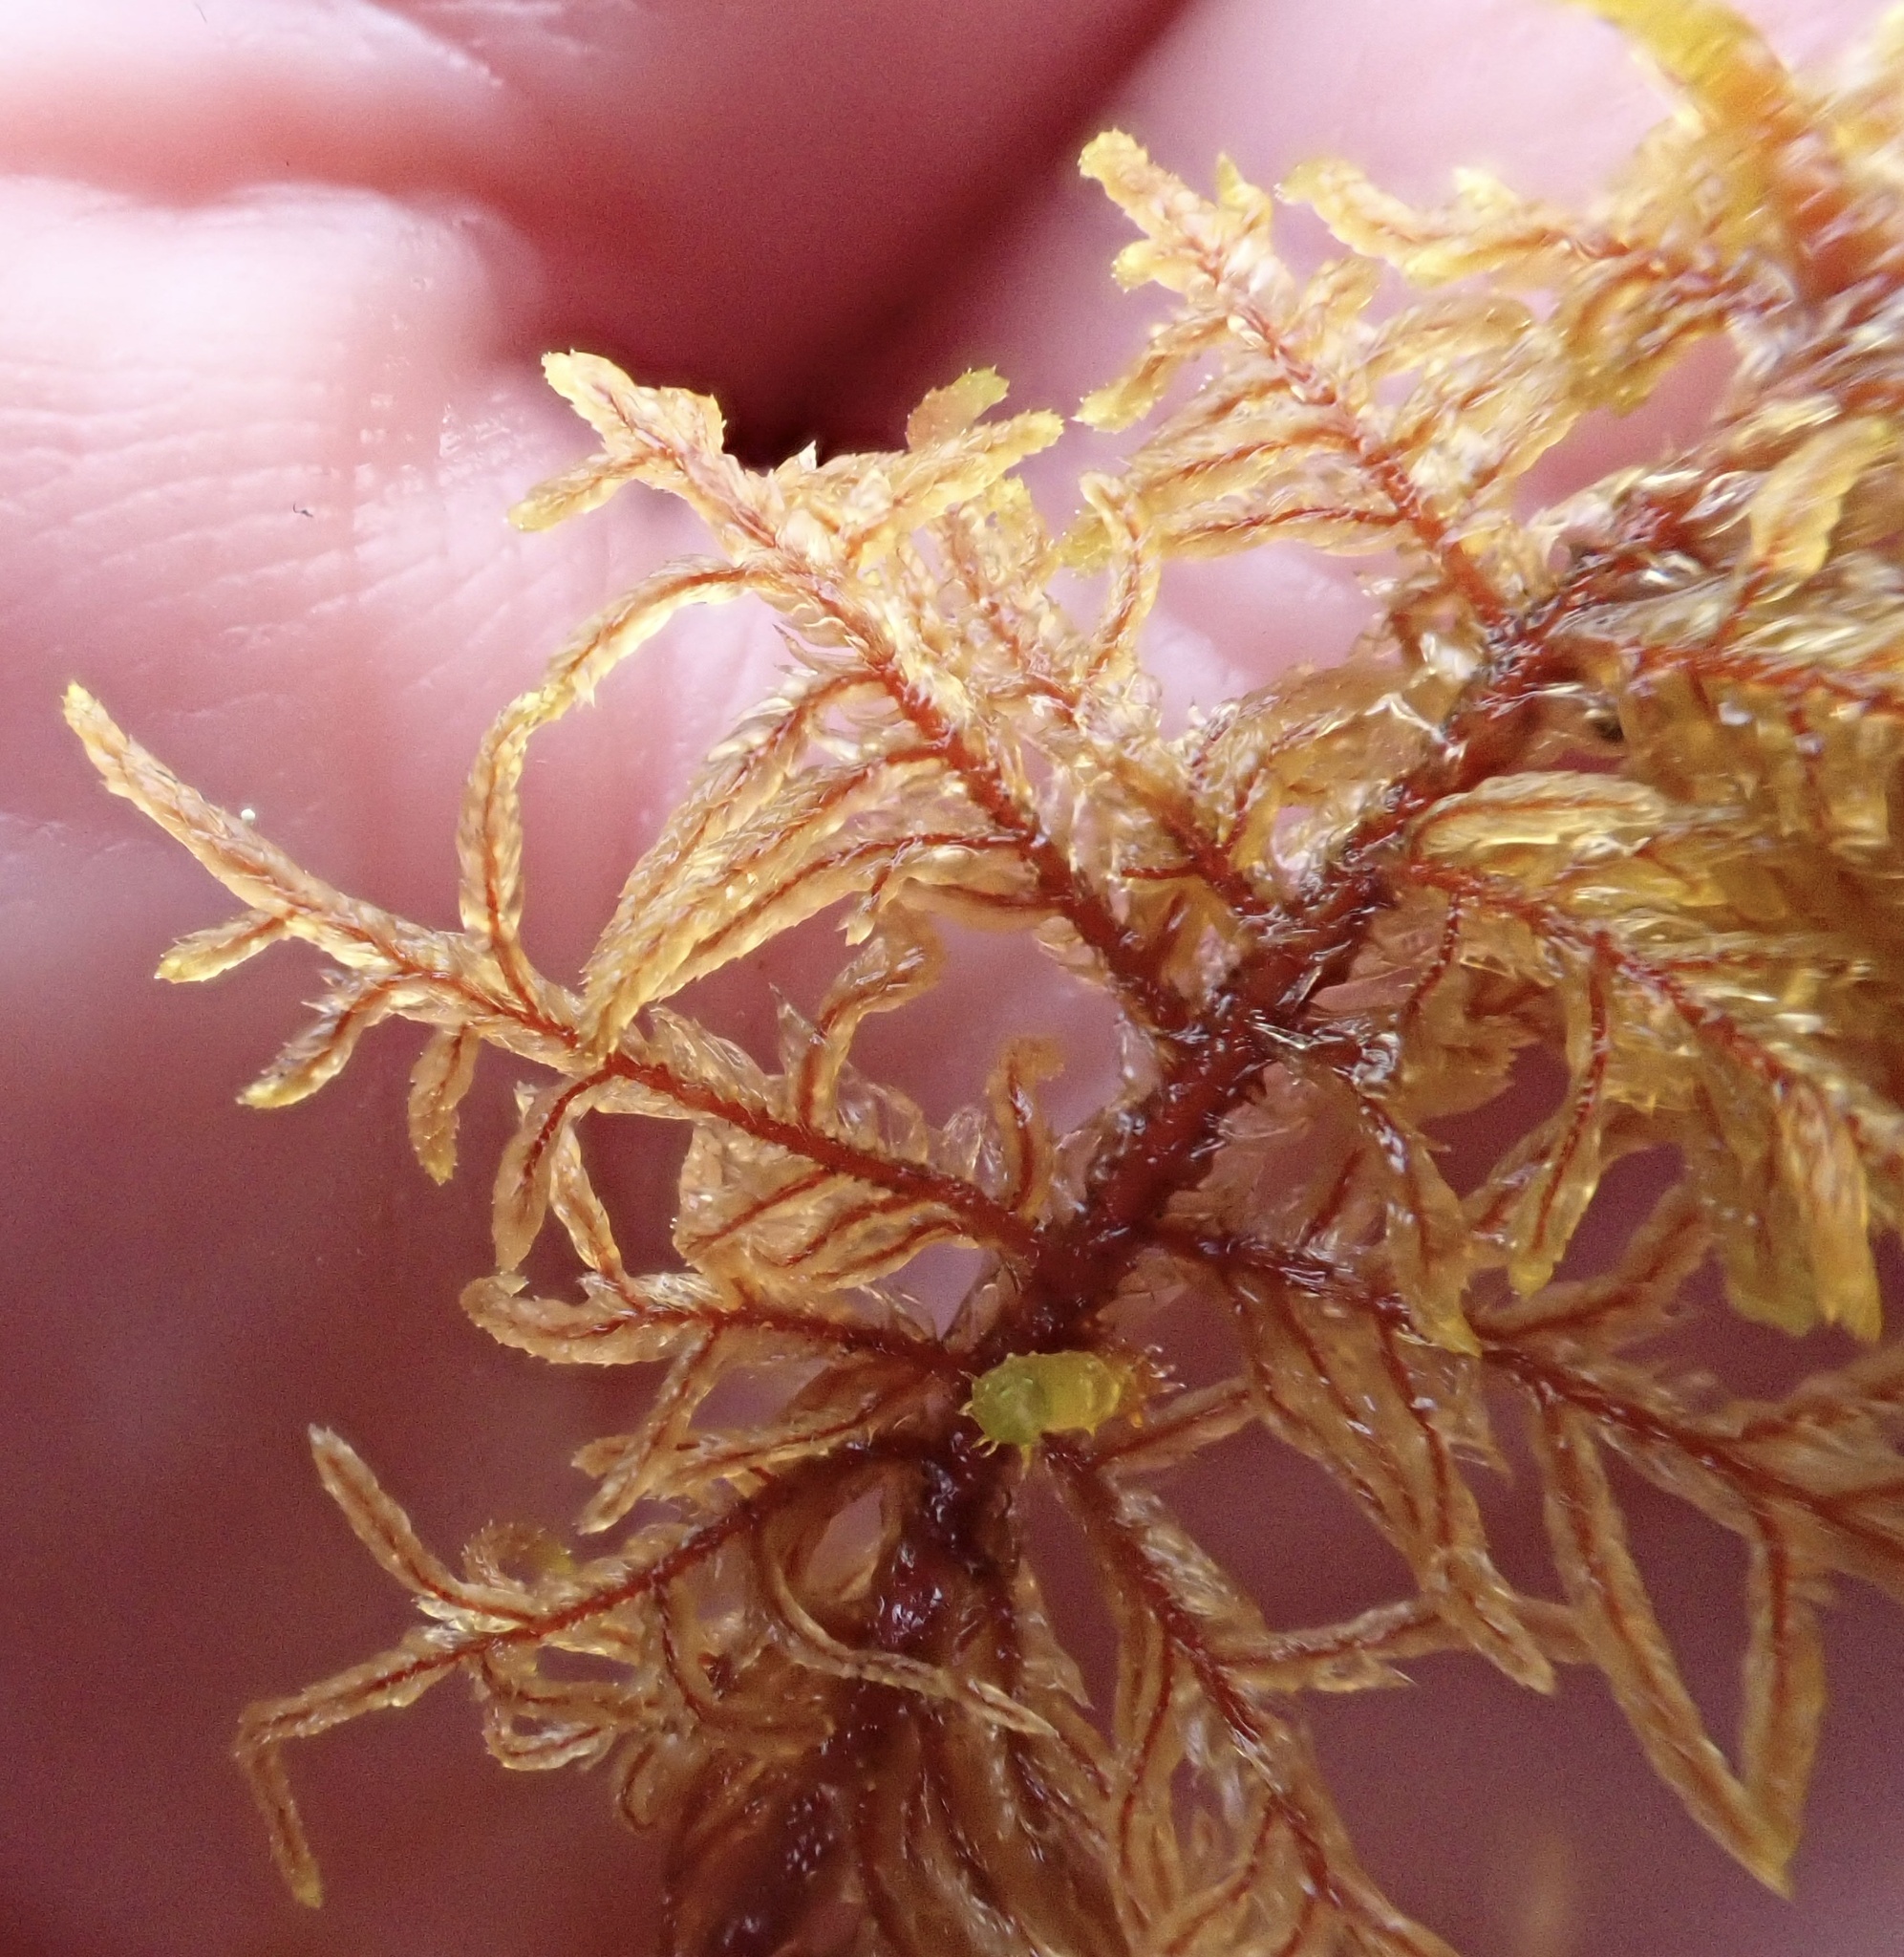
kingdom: Plantae
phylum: Bryophyta
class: Bryopsida
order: Hypnales
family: Hylocomiaceae
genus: Hylocomium
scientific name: Hylocomium splendens
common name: Stairstep moss
